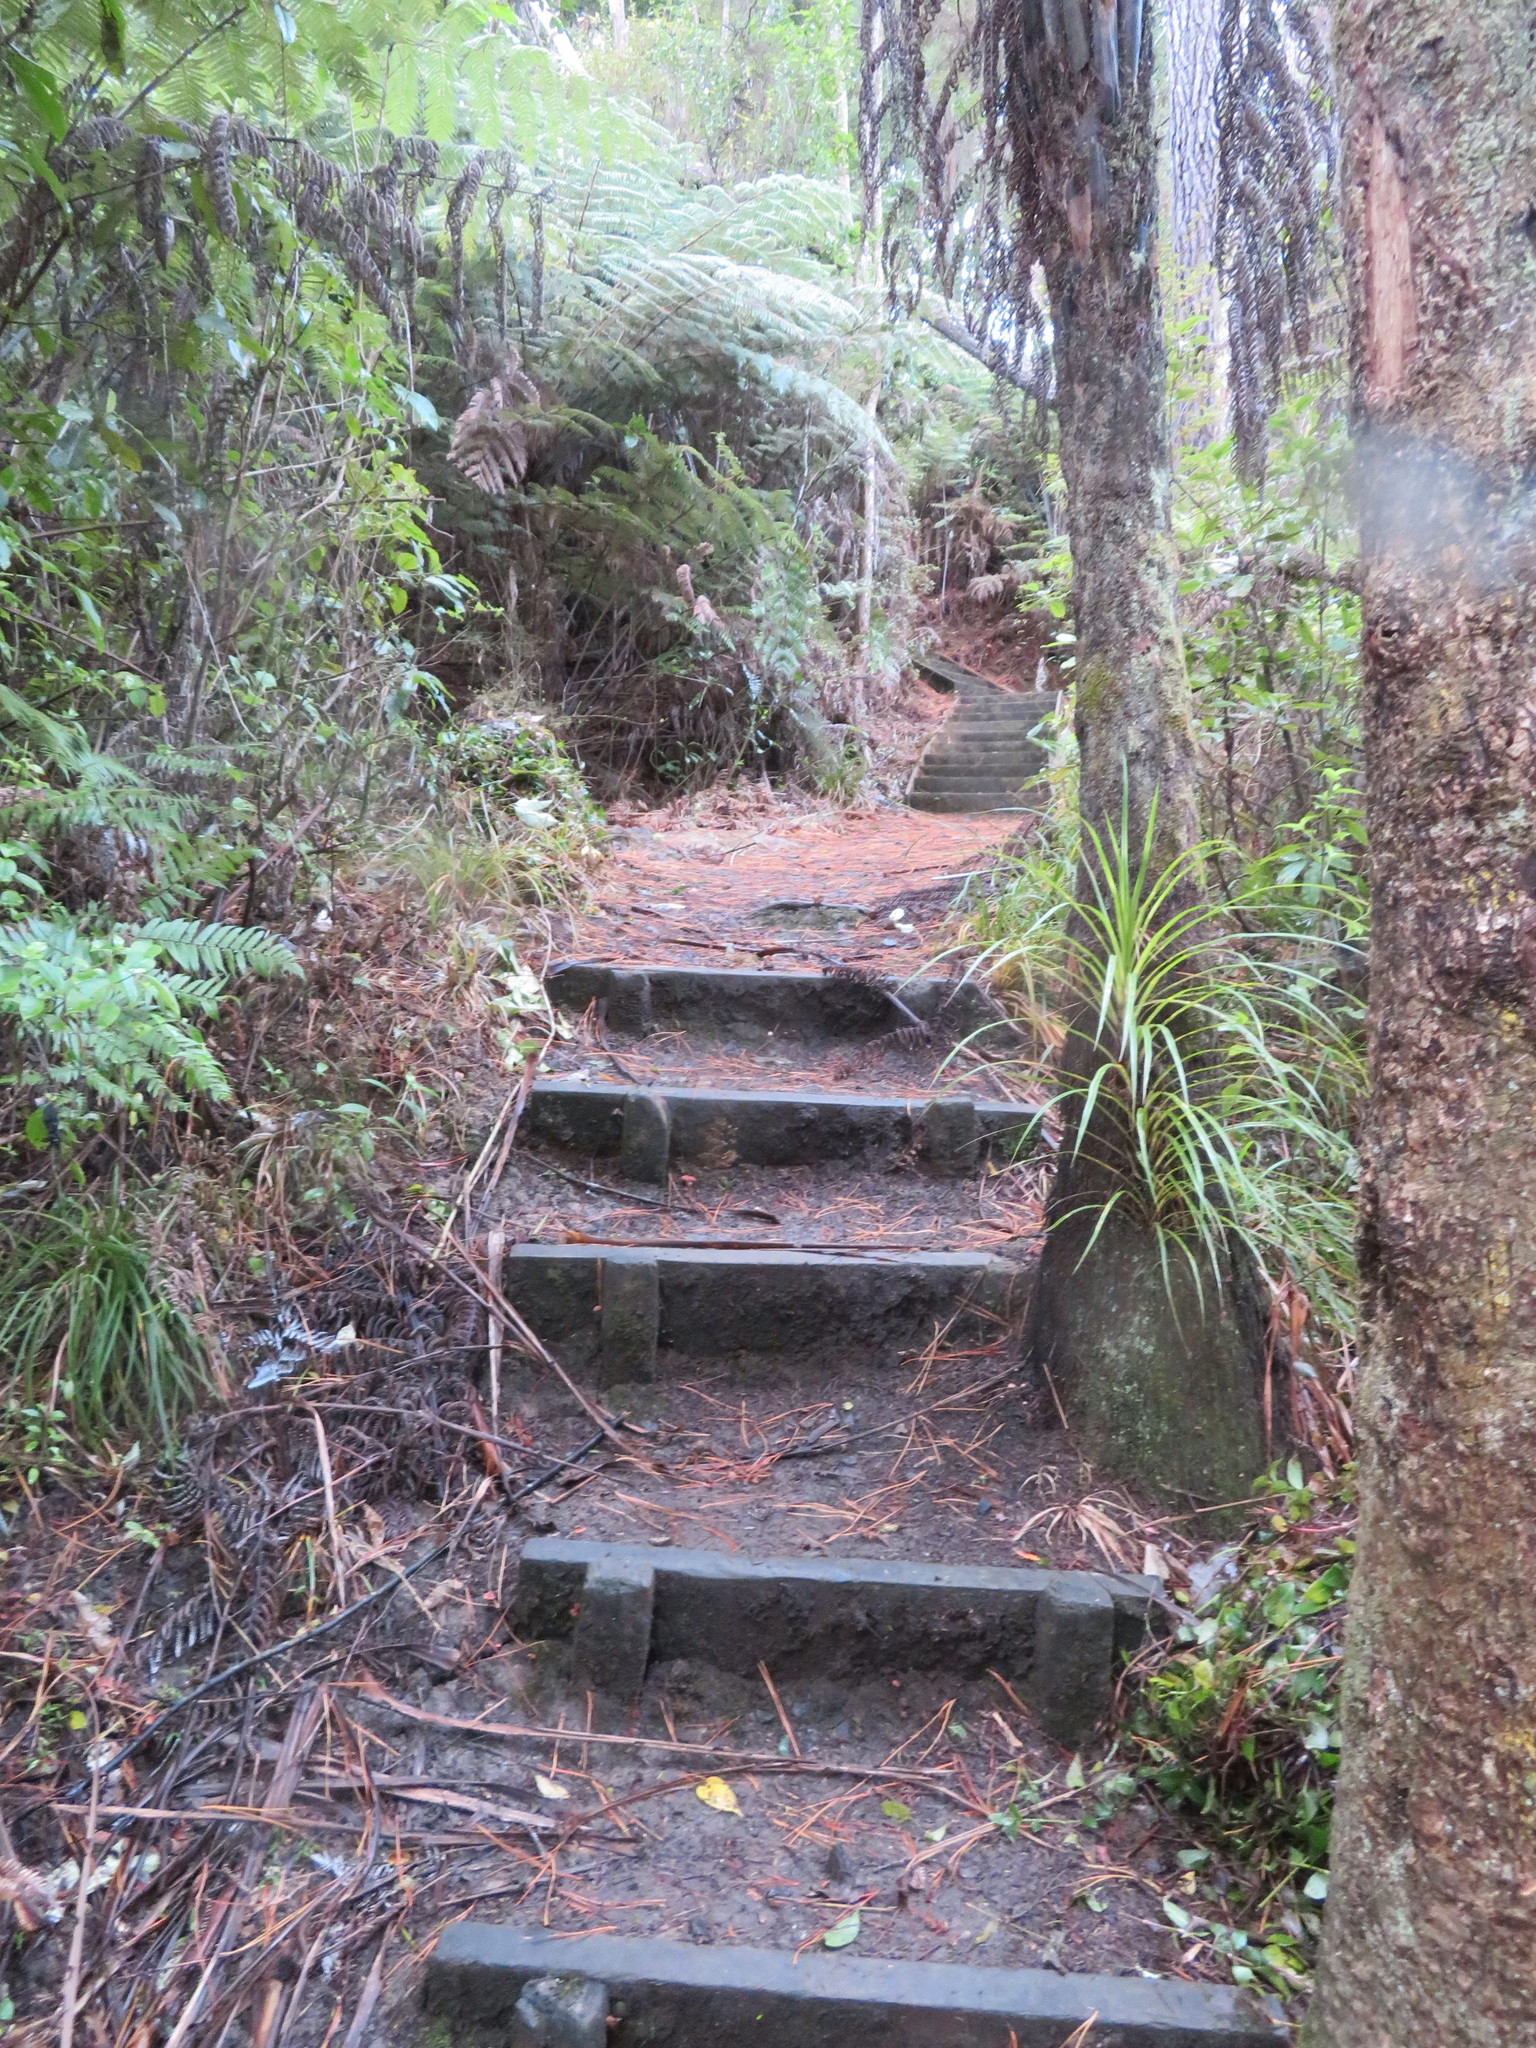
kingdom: Plantae
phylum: Tracheophyta
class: Liliopsida
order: Pandanales
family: Pandanaceae
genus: Freycinetia
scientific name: Freycinetia banksii
